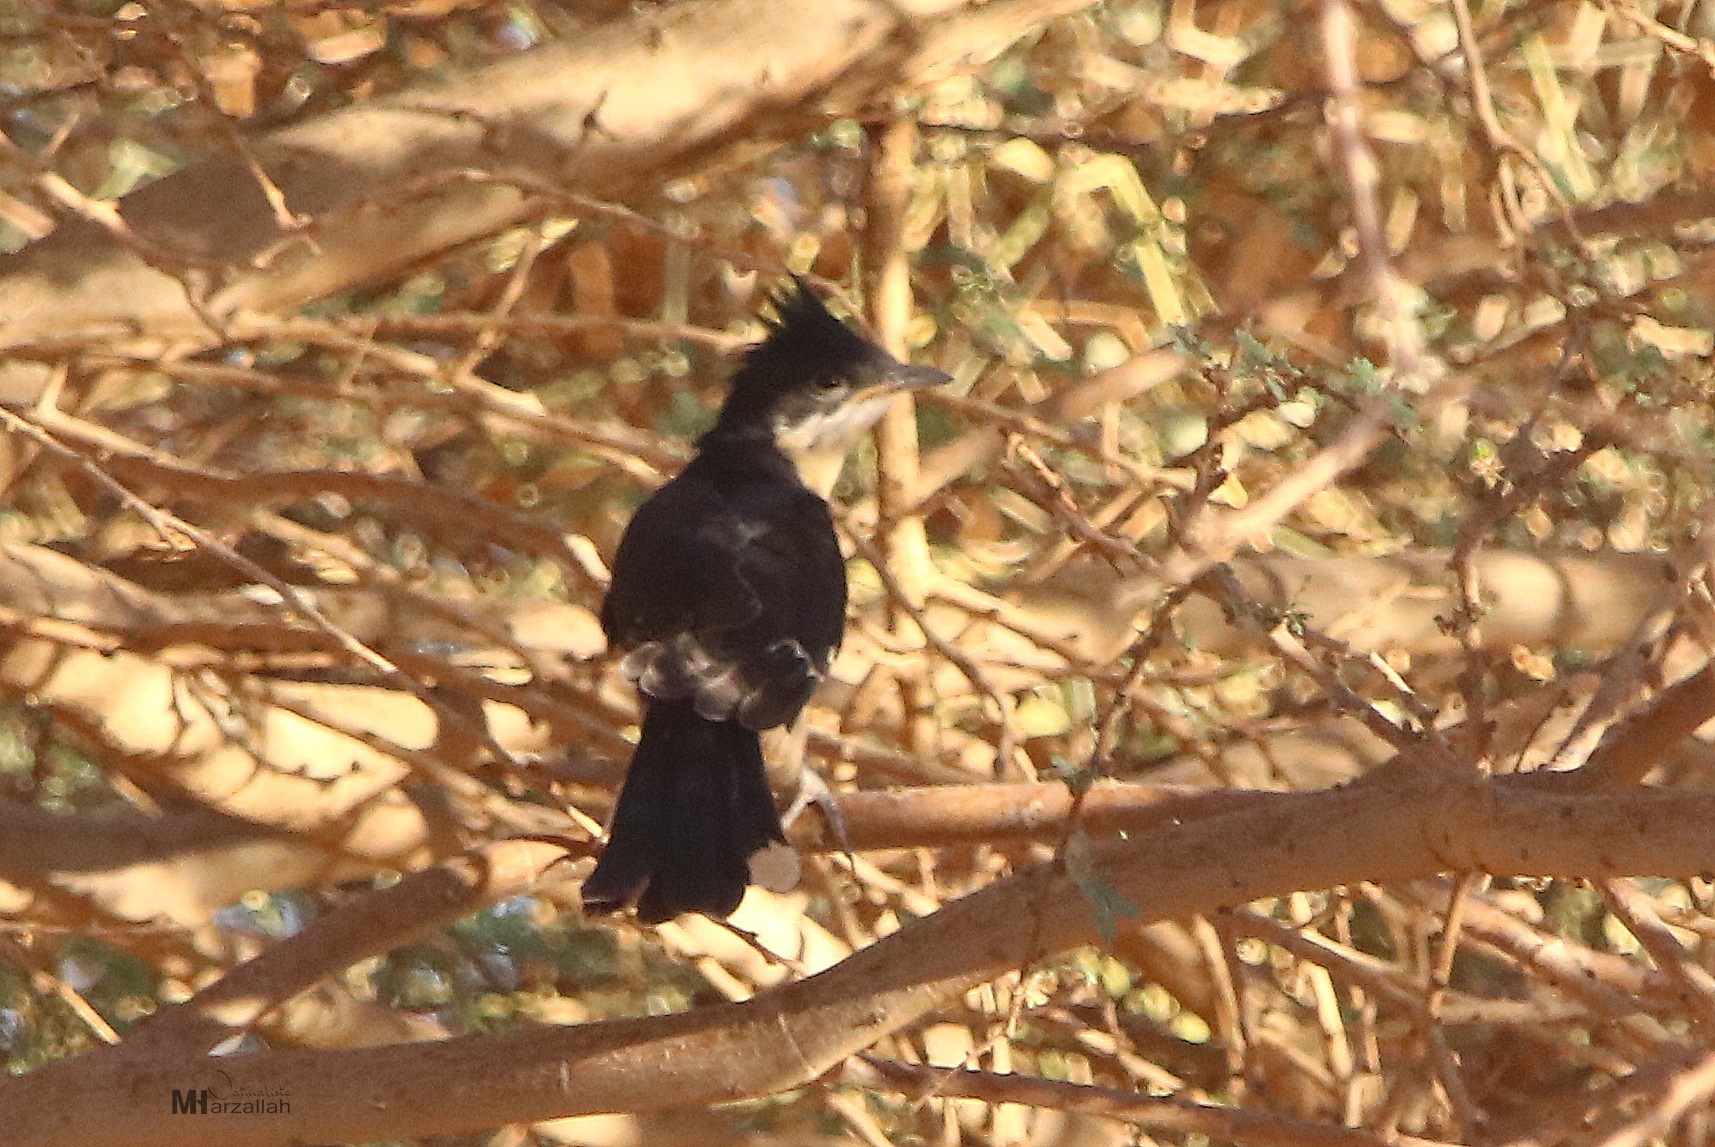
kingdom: Animalia
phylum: Chordata
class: Aves
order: Cuculiformes
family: Cuculidae
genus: Clamator
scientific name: Clamator jacobinus
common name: Jacobin cuckoo
